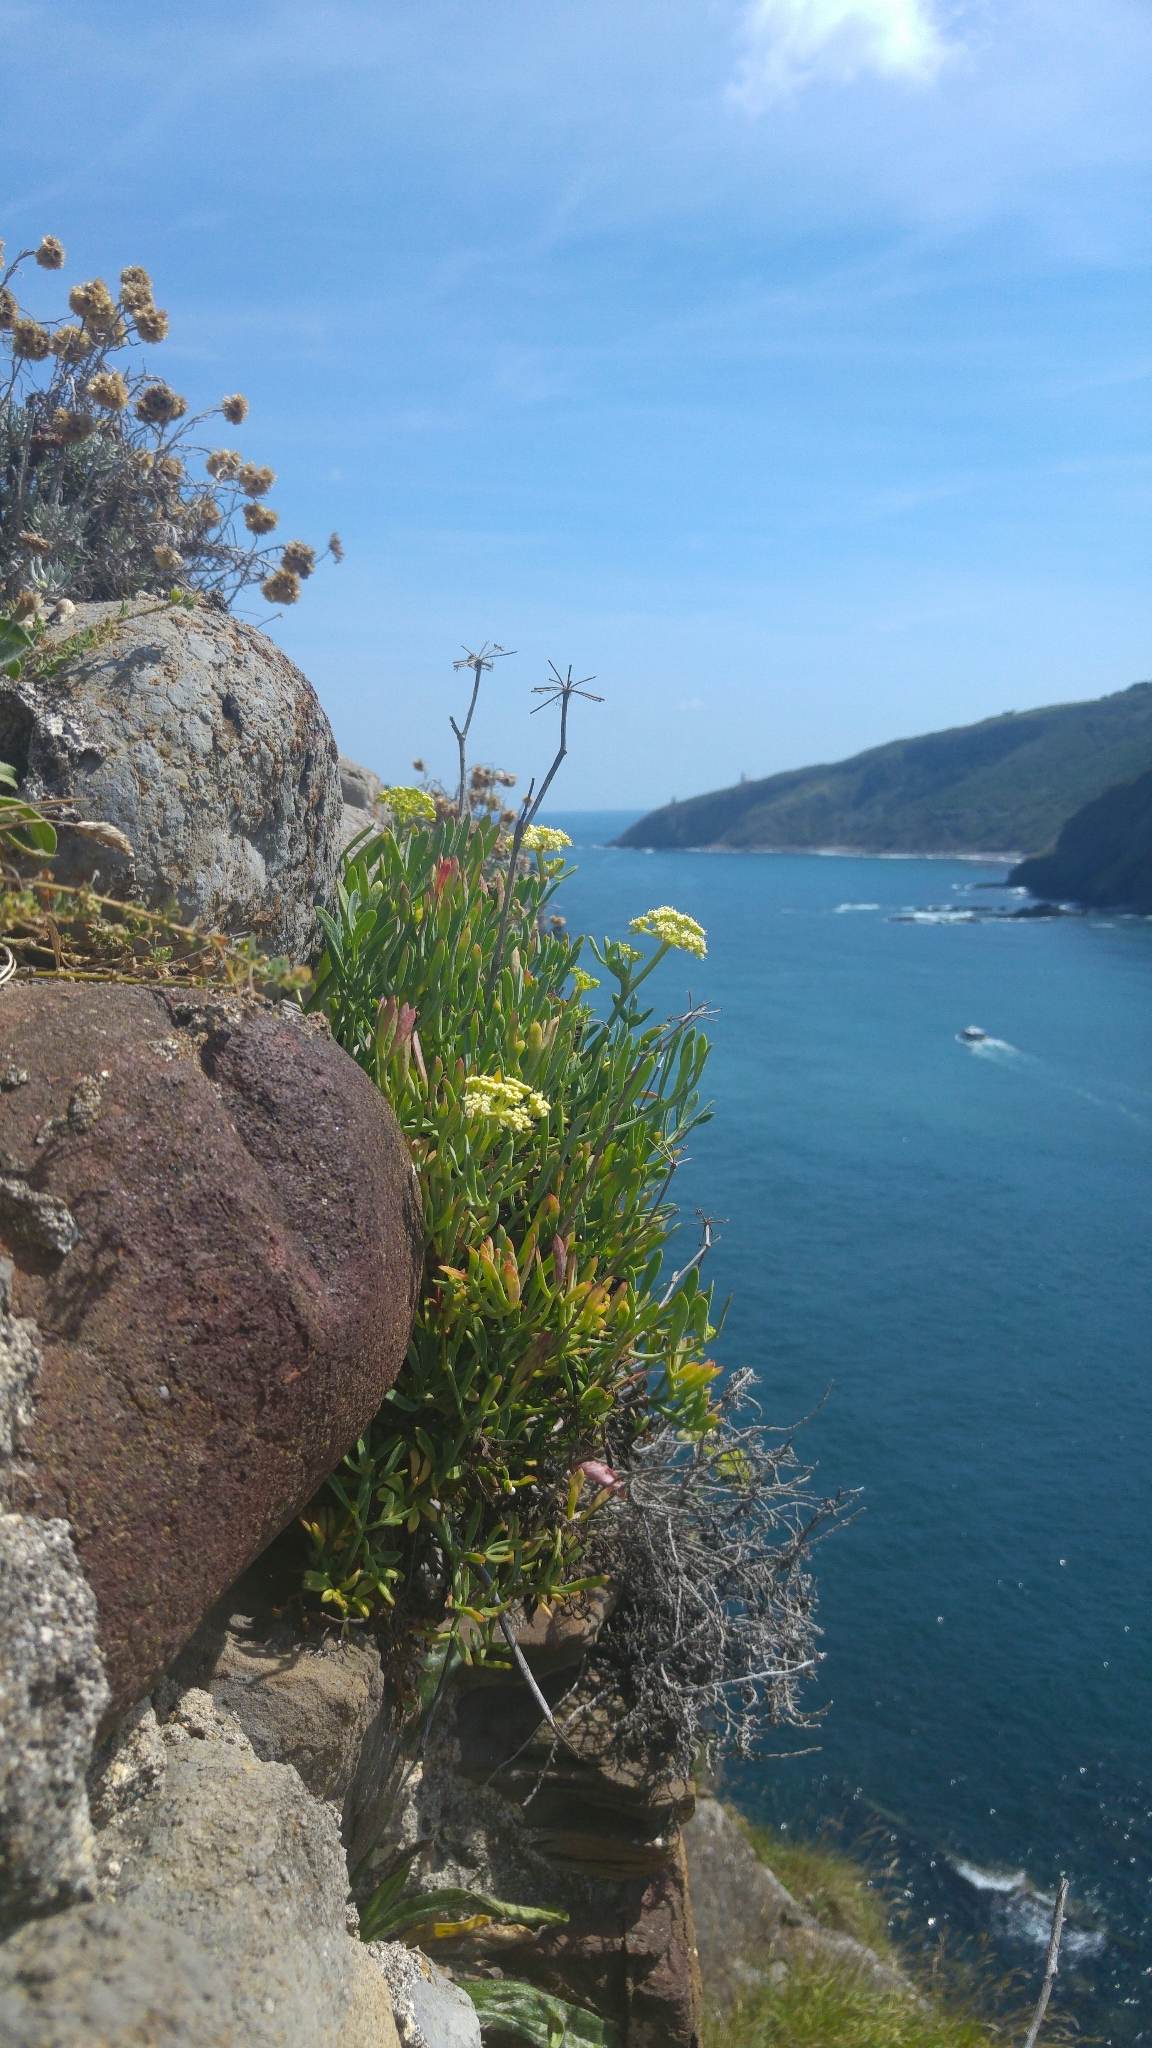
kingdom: Plantae
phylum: Tracheophyta
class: Magnoliopsida
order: Apiales
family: Apiaceae
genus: Crithmum
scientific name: Crithmum maritimum
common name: Rock samphire
